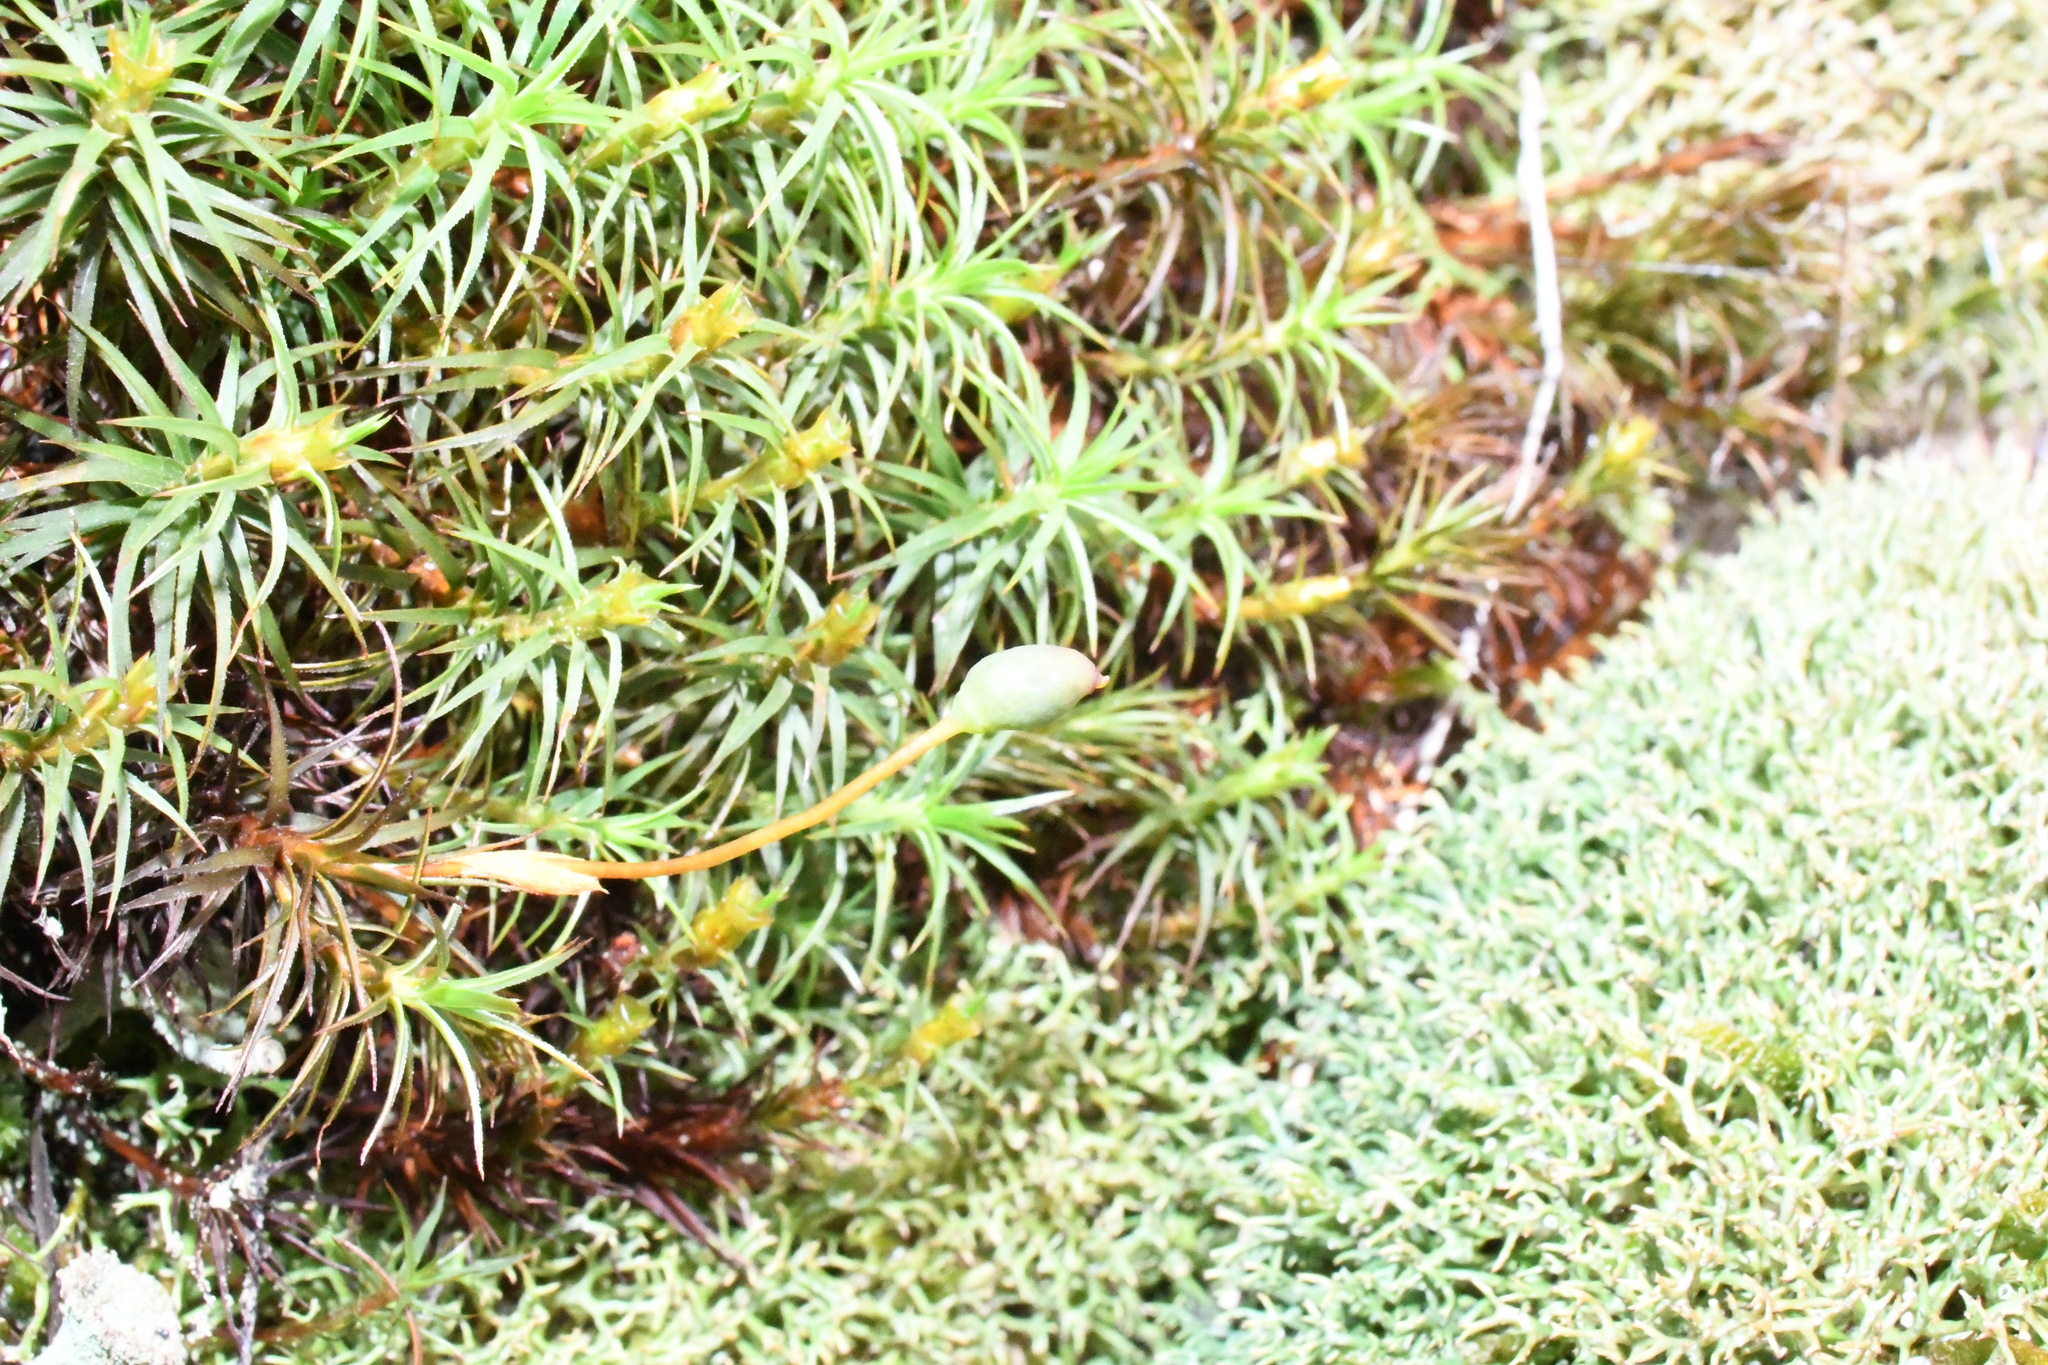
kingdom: Plantae
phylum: Bryophyta
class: Polytrichopsida
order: Polytrichales
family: Polytrichaceae
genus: Polytrichastrum
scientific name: Polytrichastrum alpinum
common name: Alpine haircap
